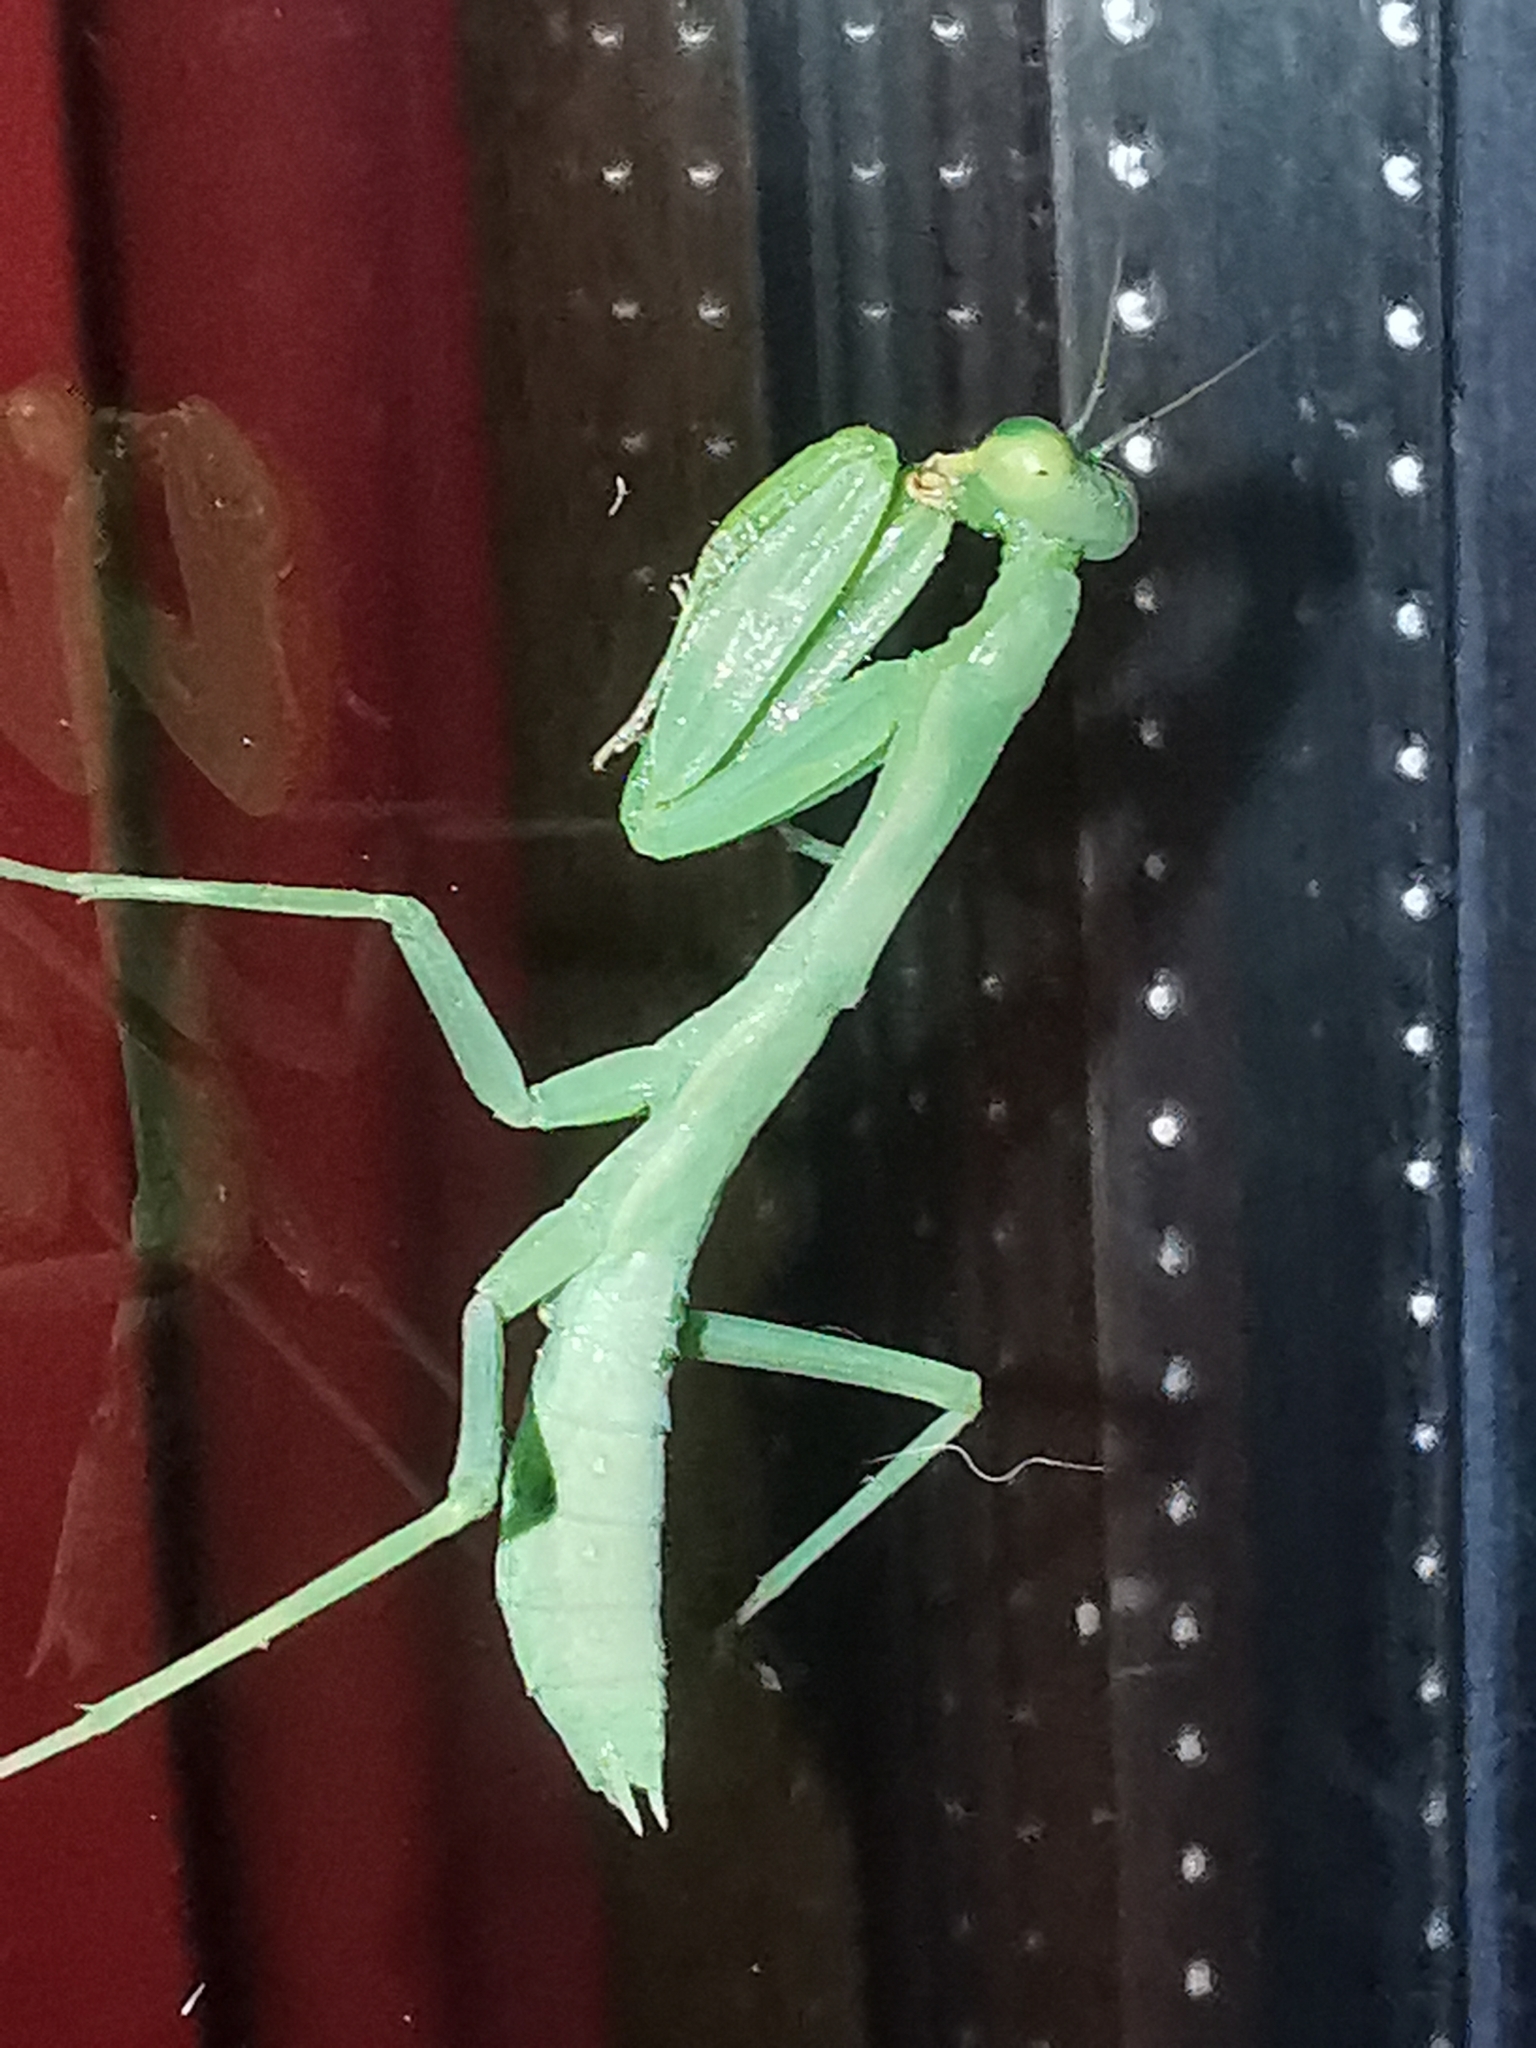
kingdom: Animalia
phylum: Arthropoda
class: Insecta
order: Mantodea
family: Mantidae
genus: Hierodula
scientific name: Hierodula transcaucasica
